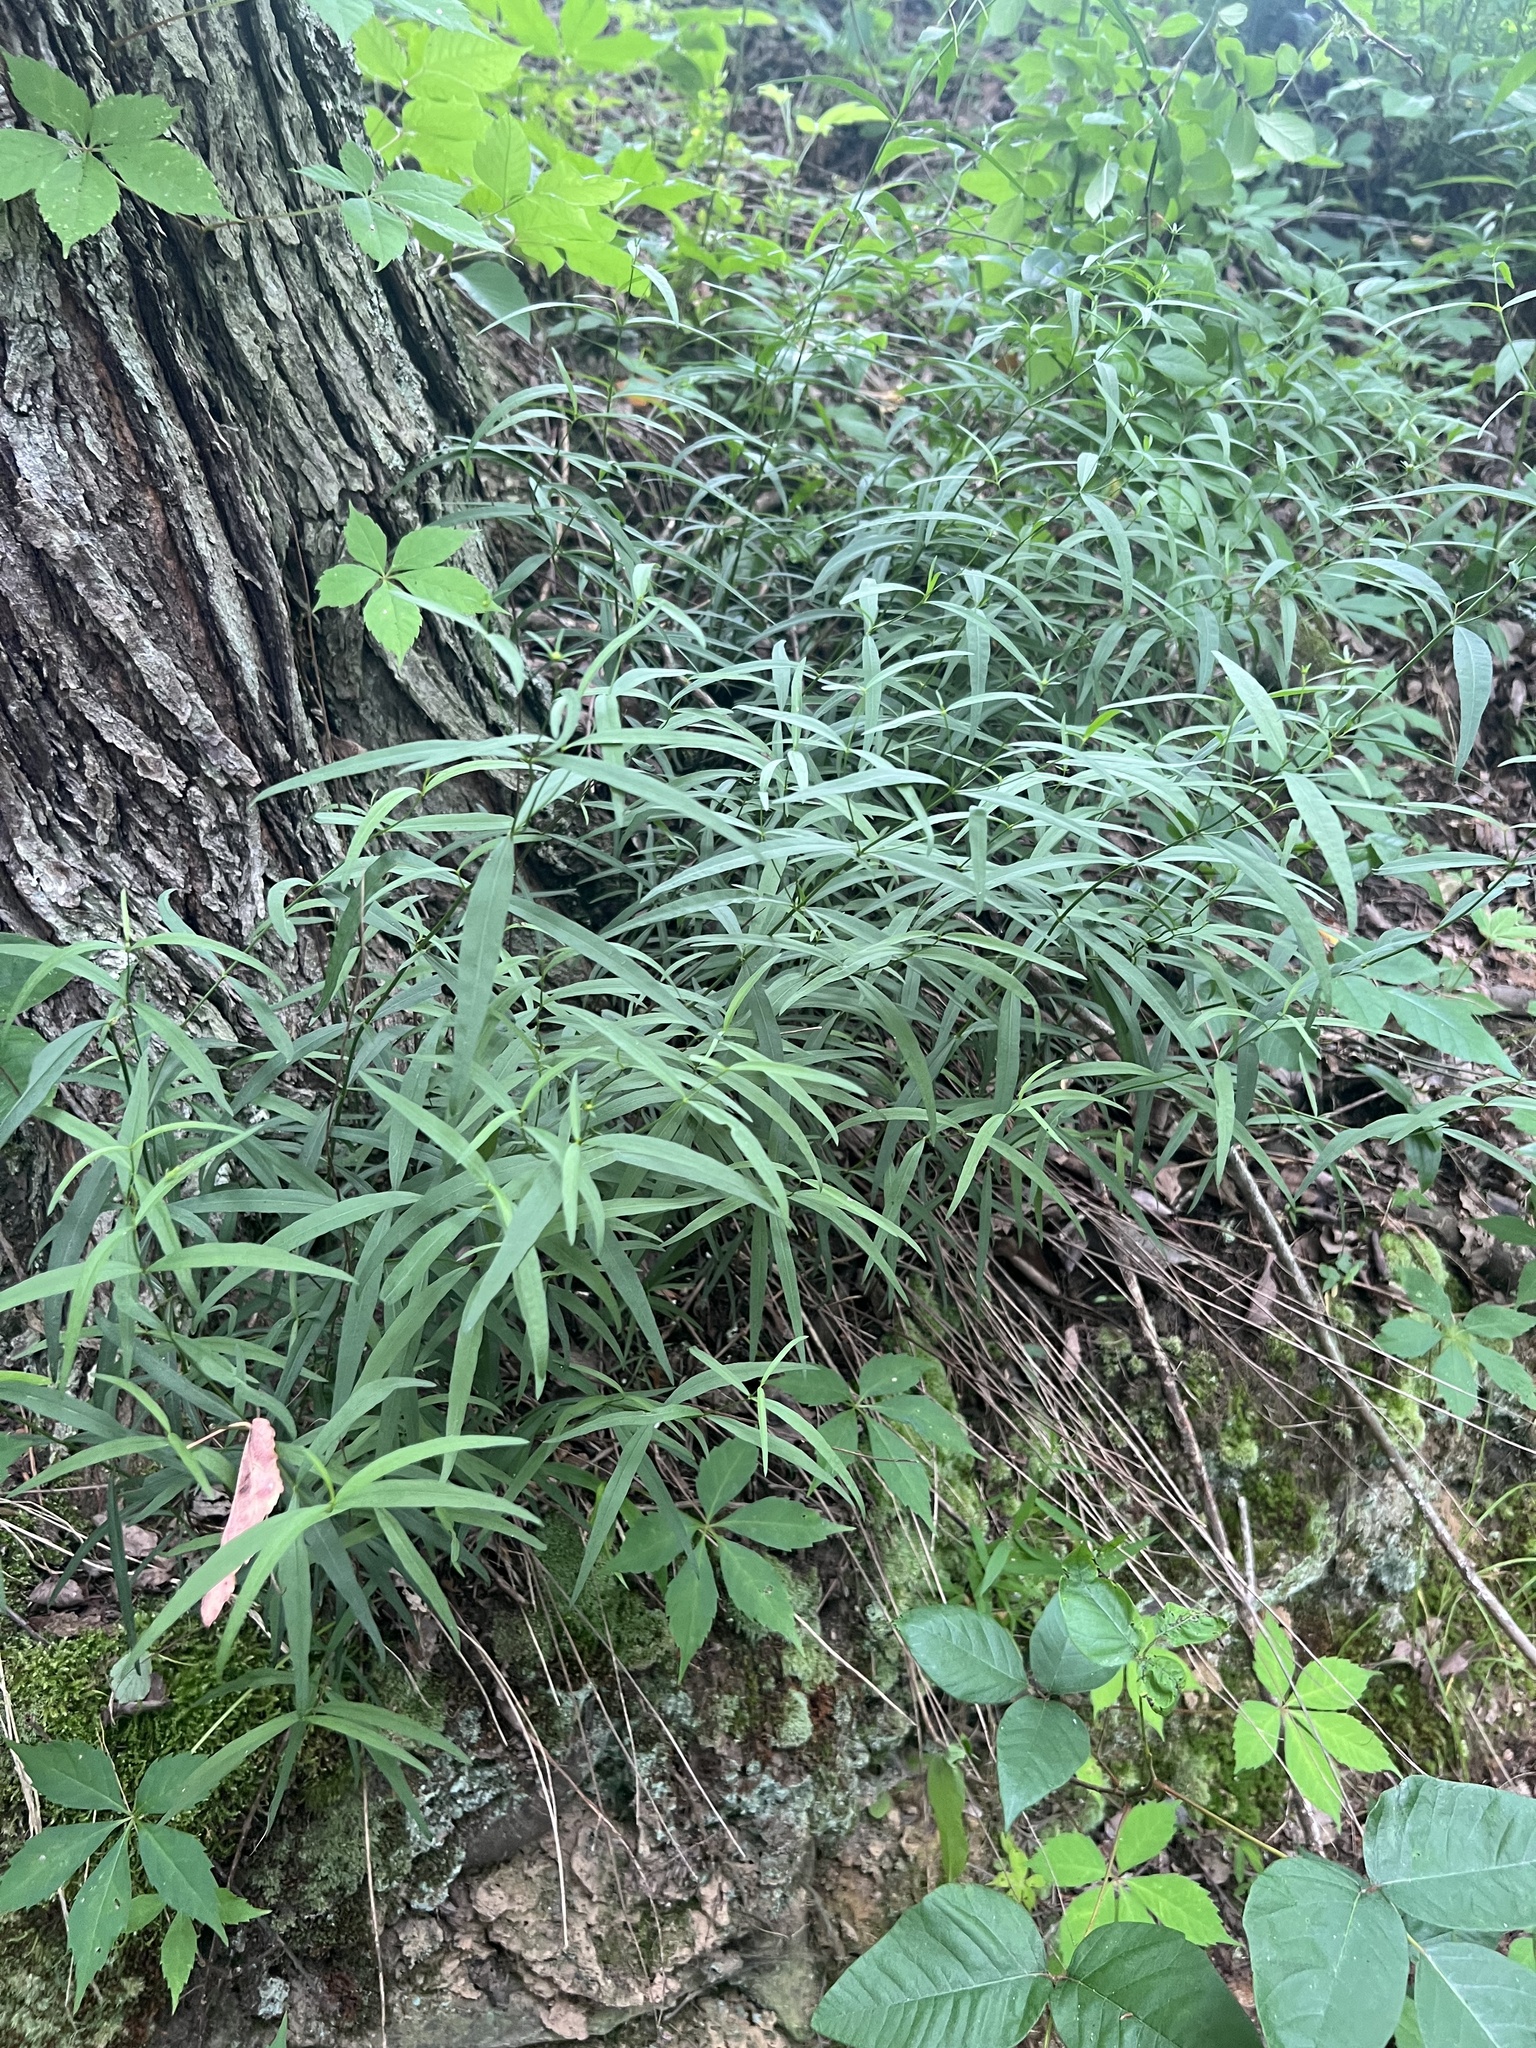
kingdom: Plantae
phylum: Tracheophyta
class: Magnoliopsida
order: Asterales
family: Asteraceae
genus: Coreopsis
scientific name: Coreopsis delphiniifolia
